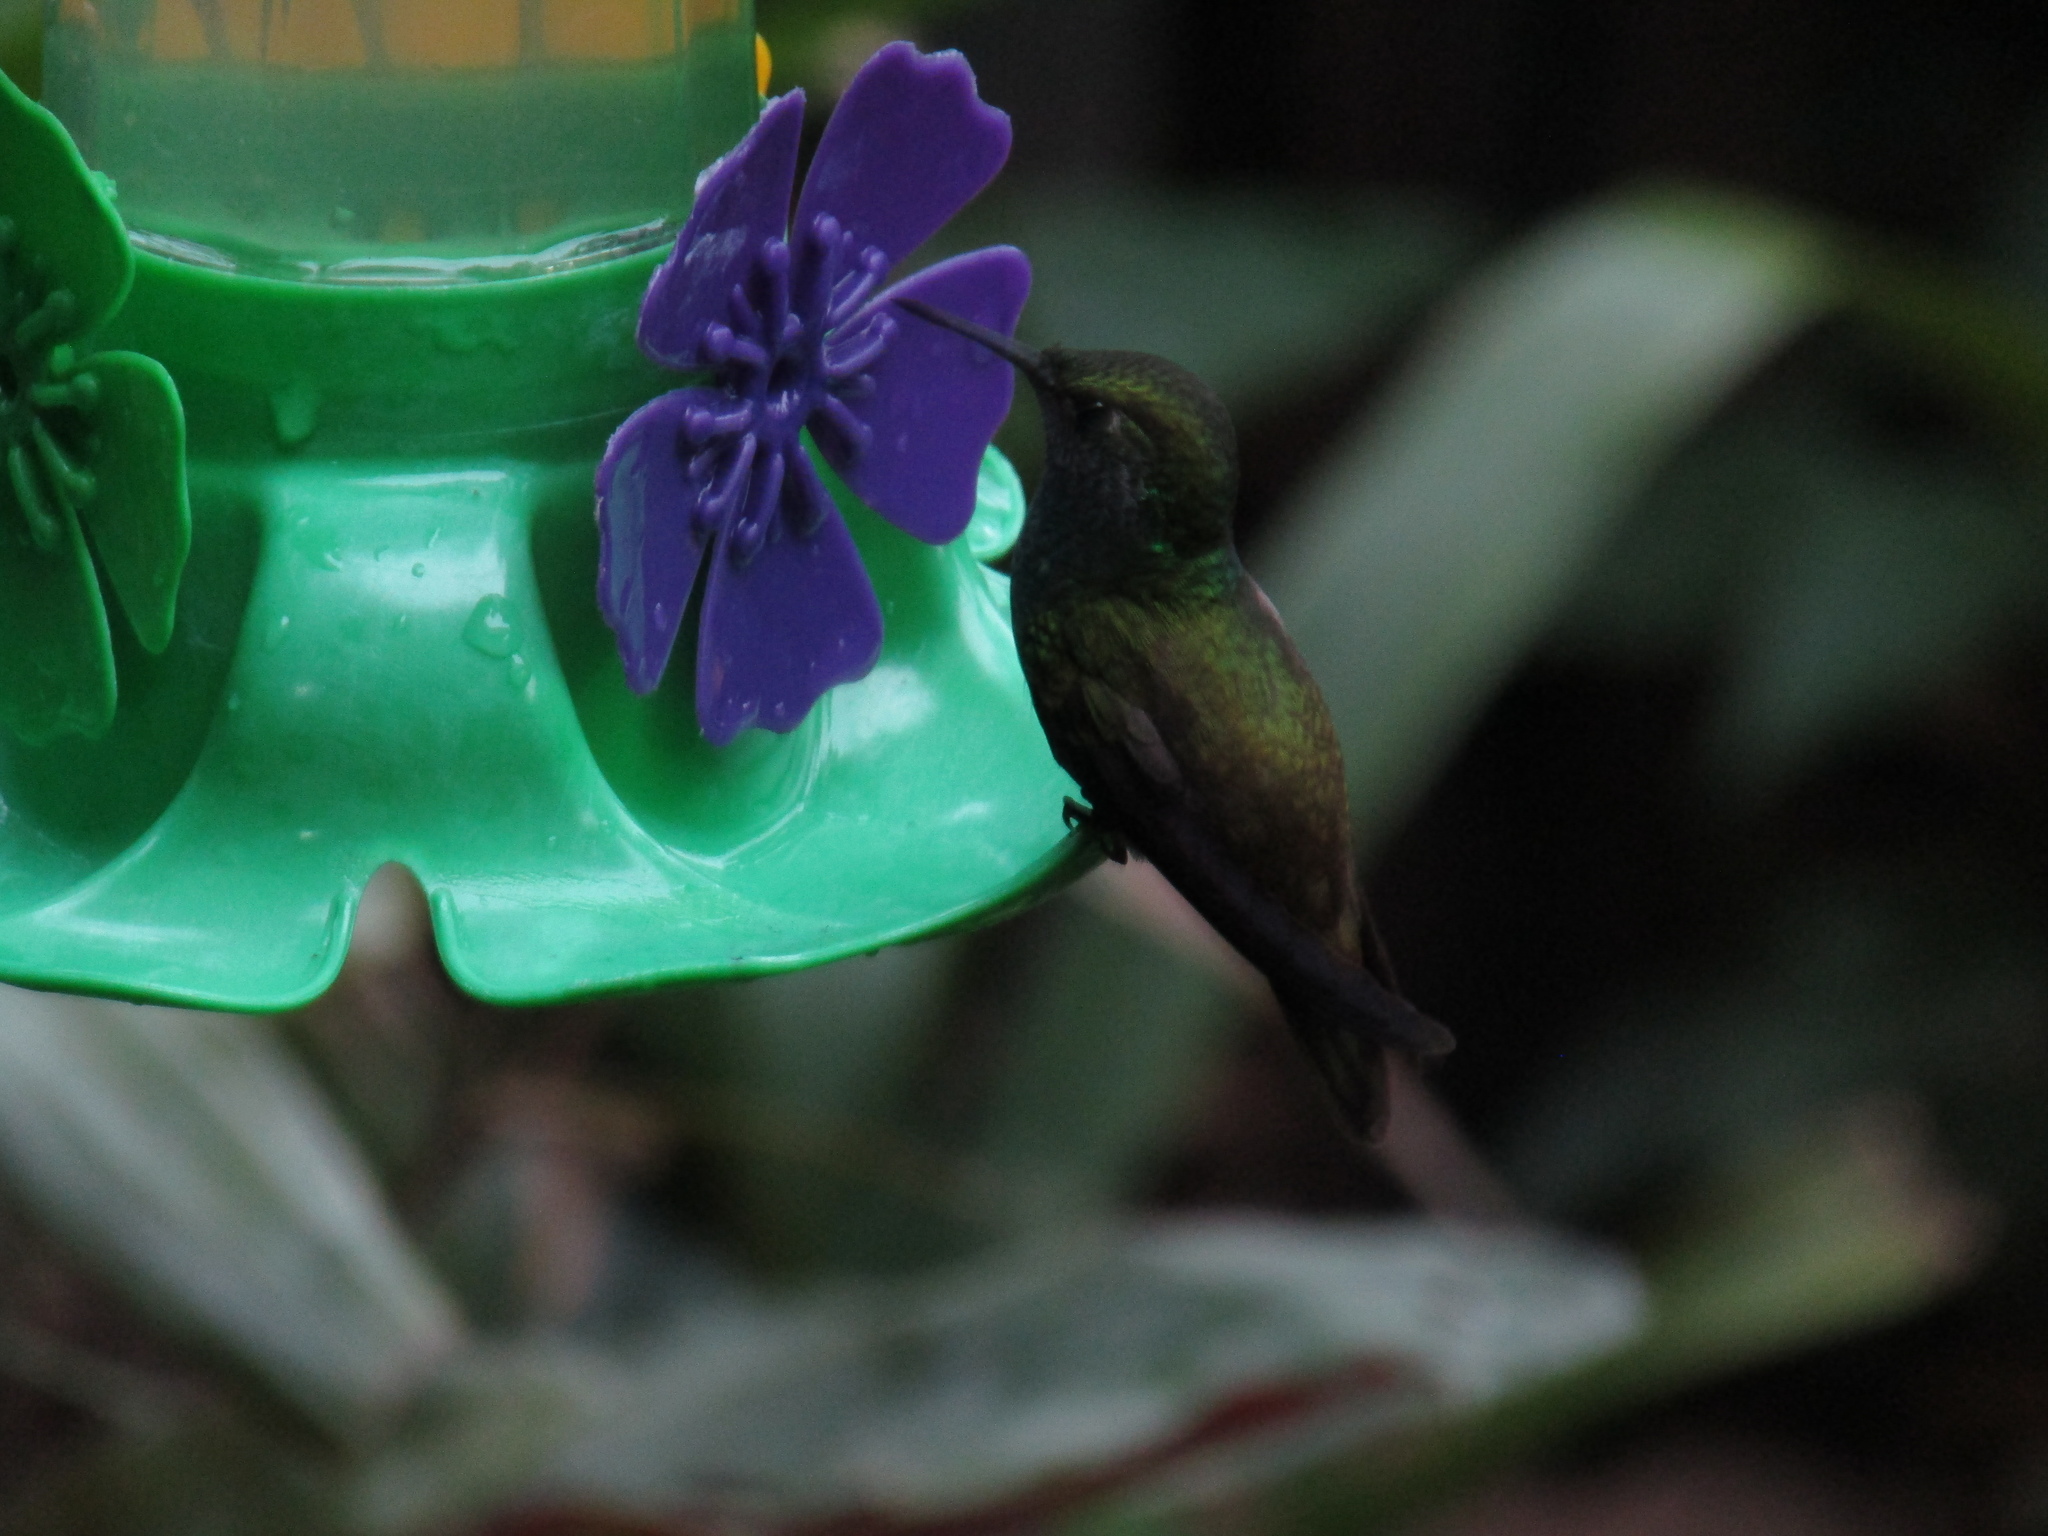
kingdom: Animalia
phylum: Chordata
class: Aves
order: Apodiformes
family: Trochilidae
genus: Chrysuronia
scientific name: Chrysuronia versicolor
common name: Versicolored emerald
